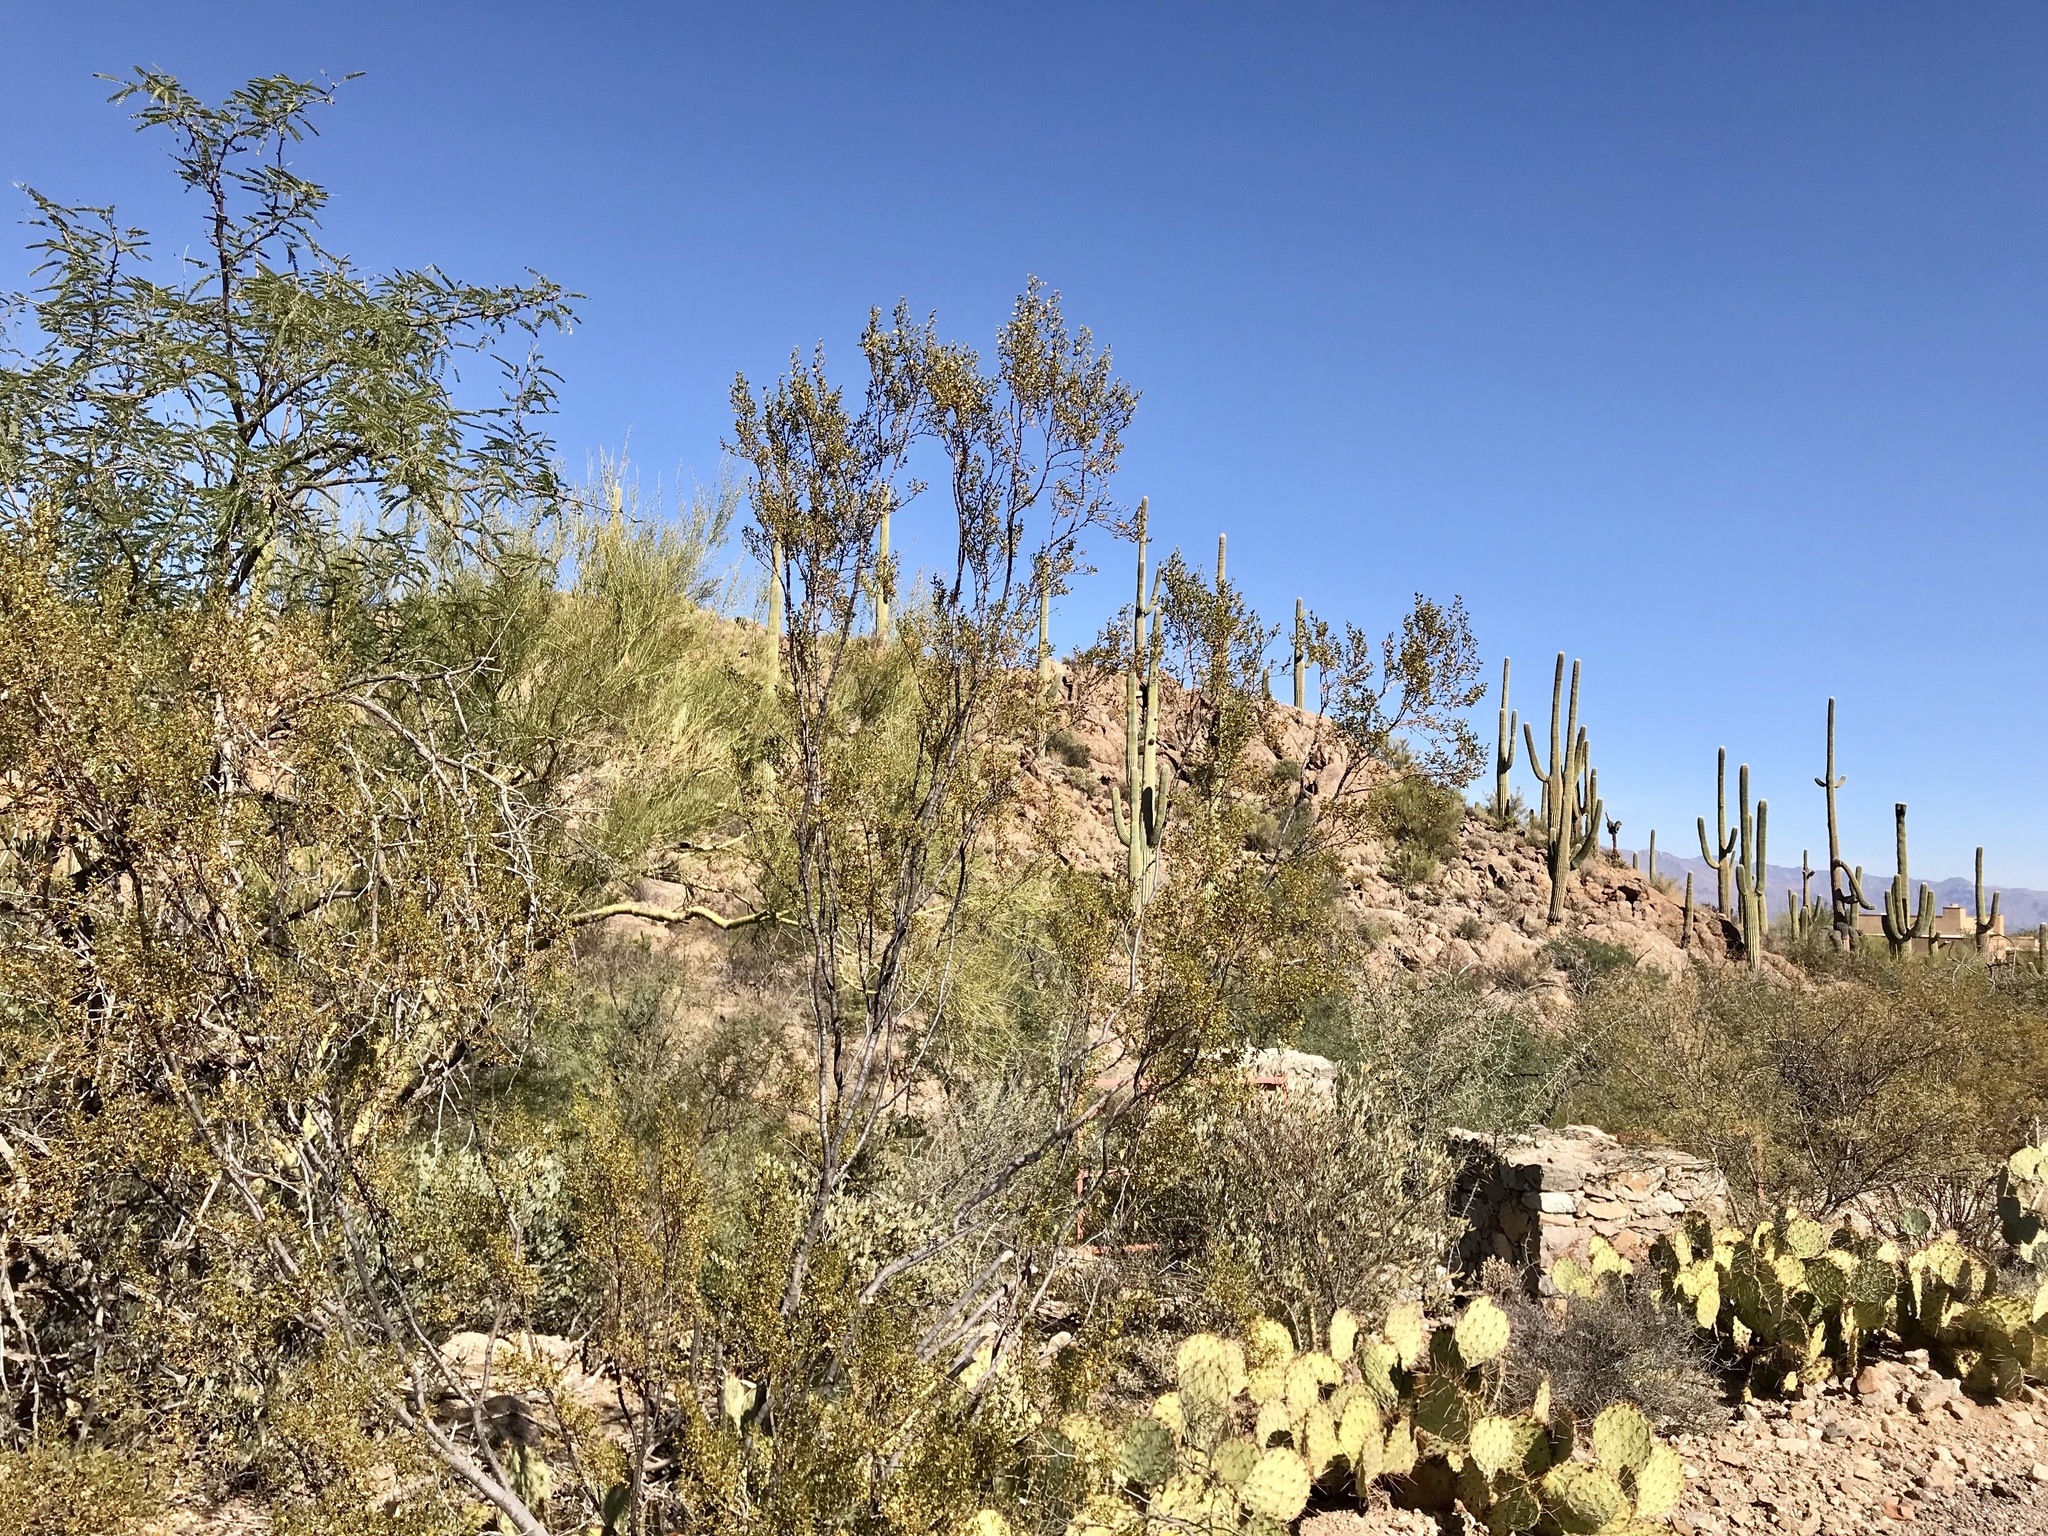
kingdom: Plantae
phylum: Tracheophyta
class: Magnoliopsida
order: Zygophyllales
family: Zygophyllaceae
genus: Larrea
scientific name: Larrea tridentata
